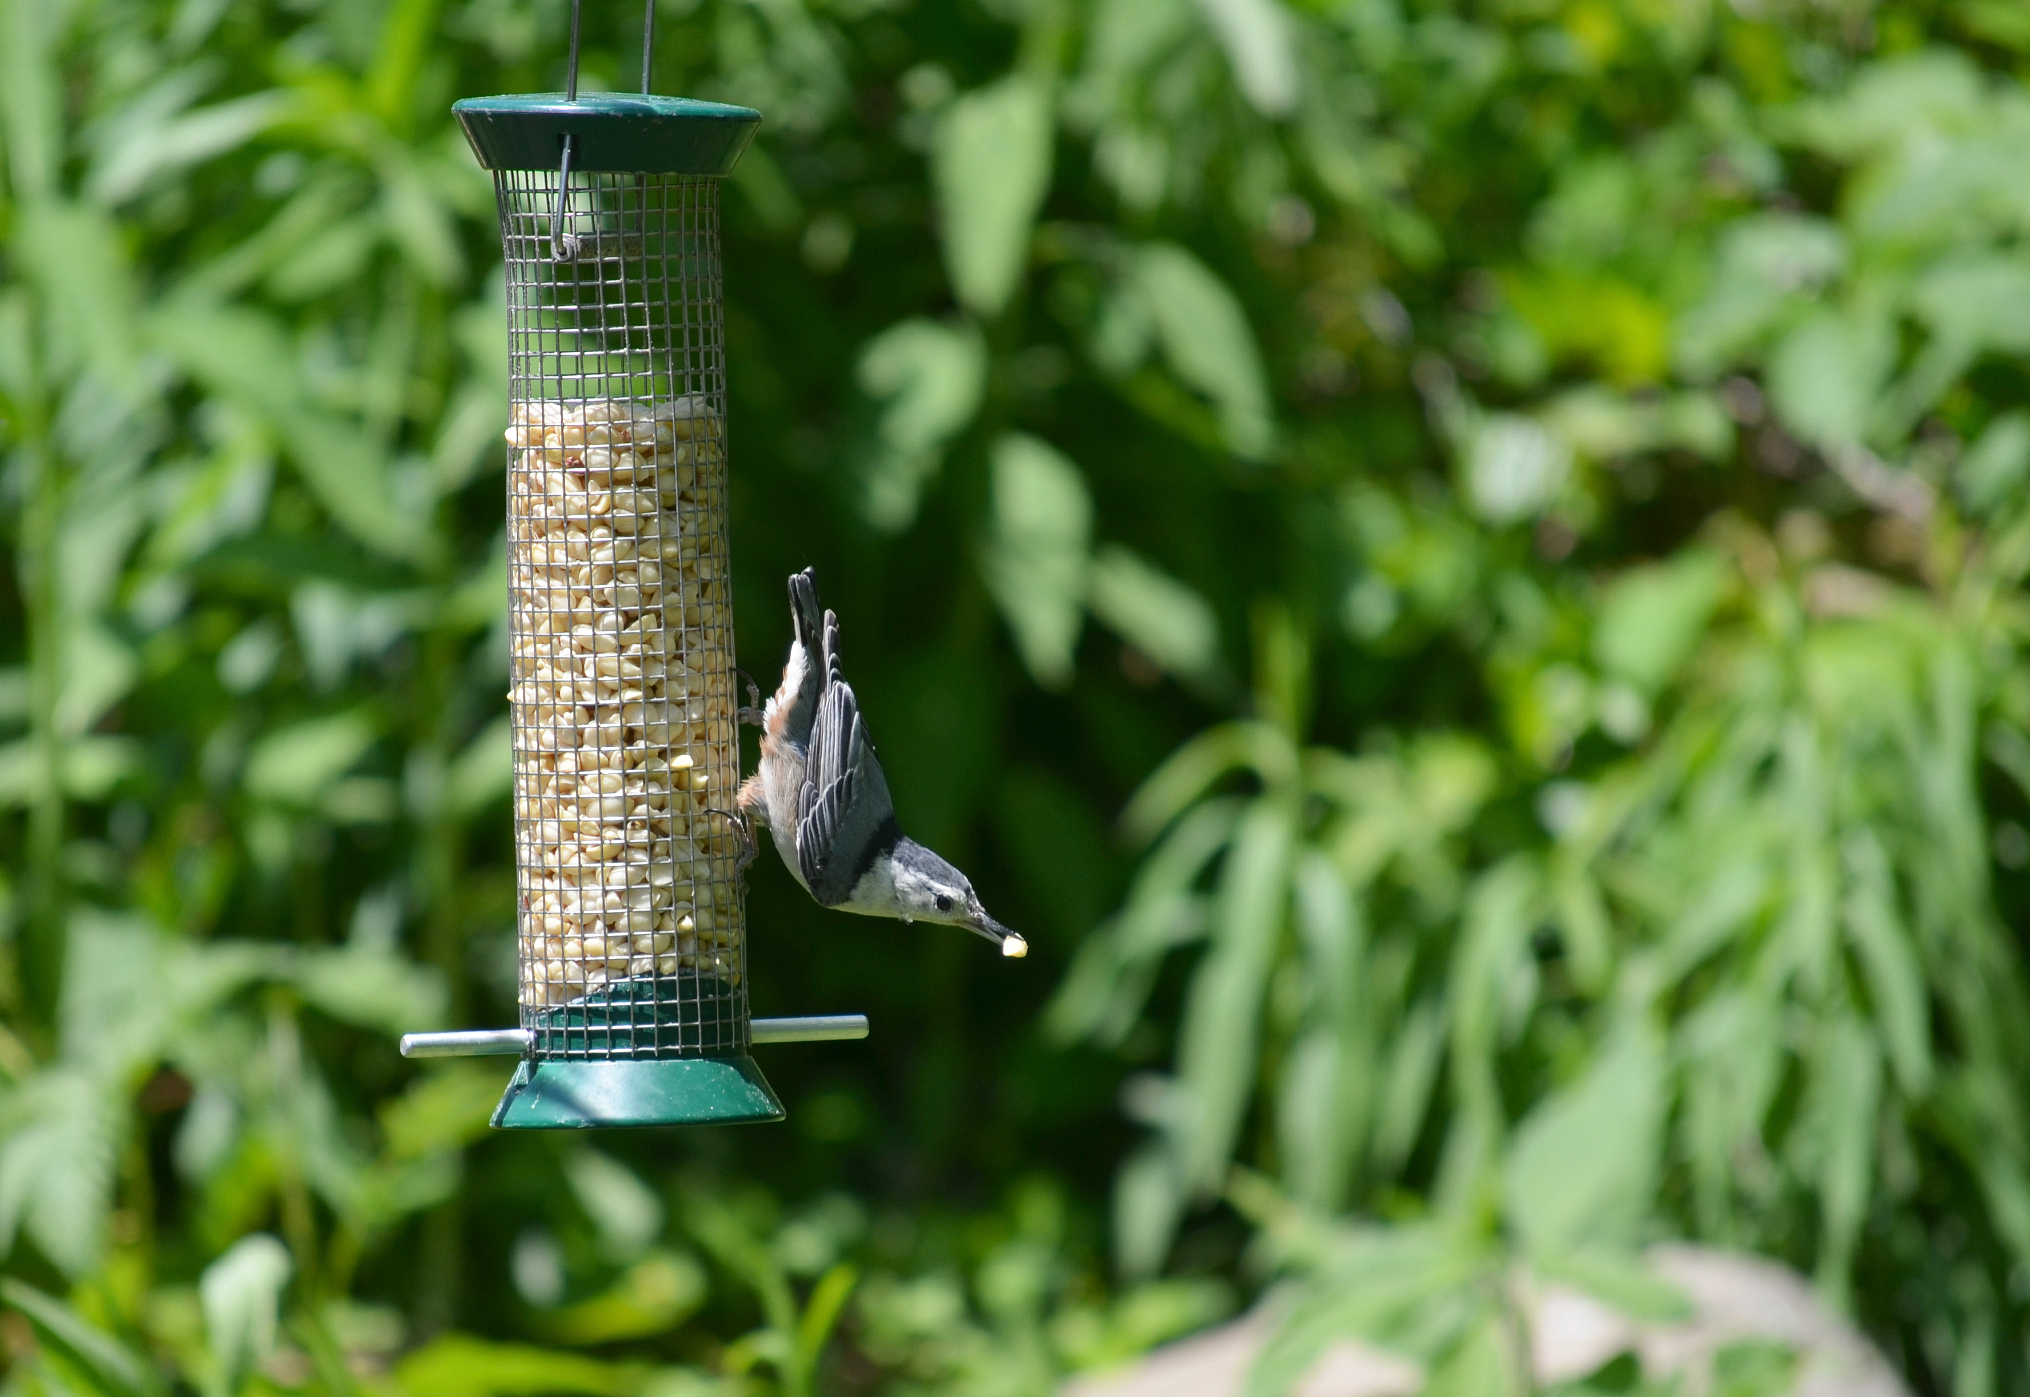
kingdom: Animalia
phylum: Chordata
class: Aves
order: Passeriformes
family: Sittidae
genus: Sitta
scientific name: Sitta carolinensis
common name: White-breasted nuthatch
